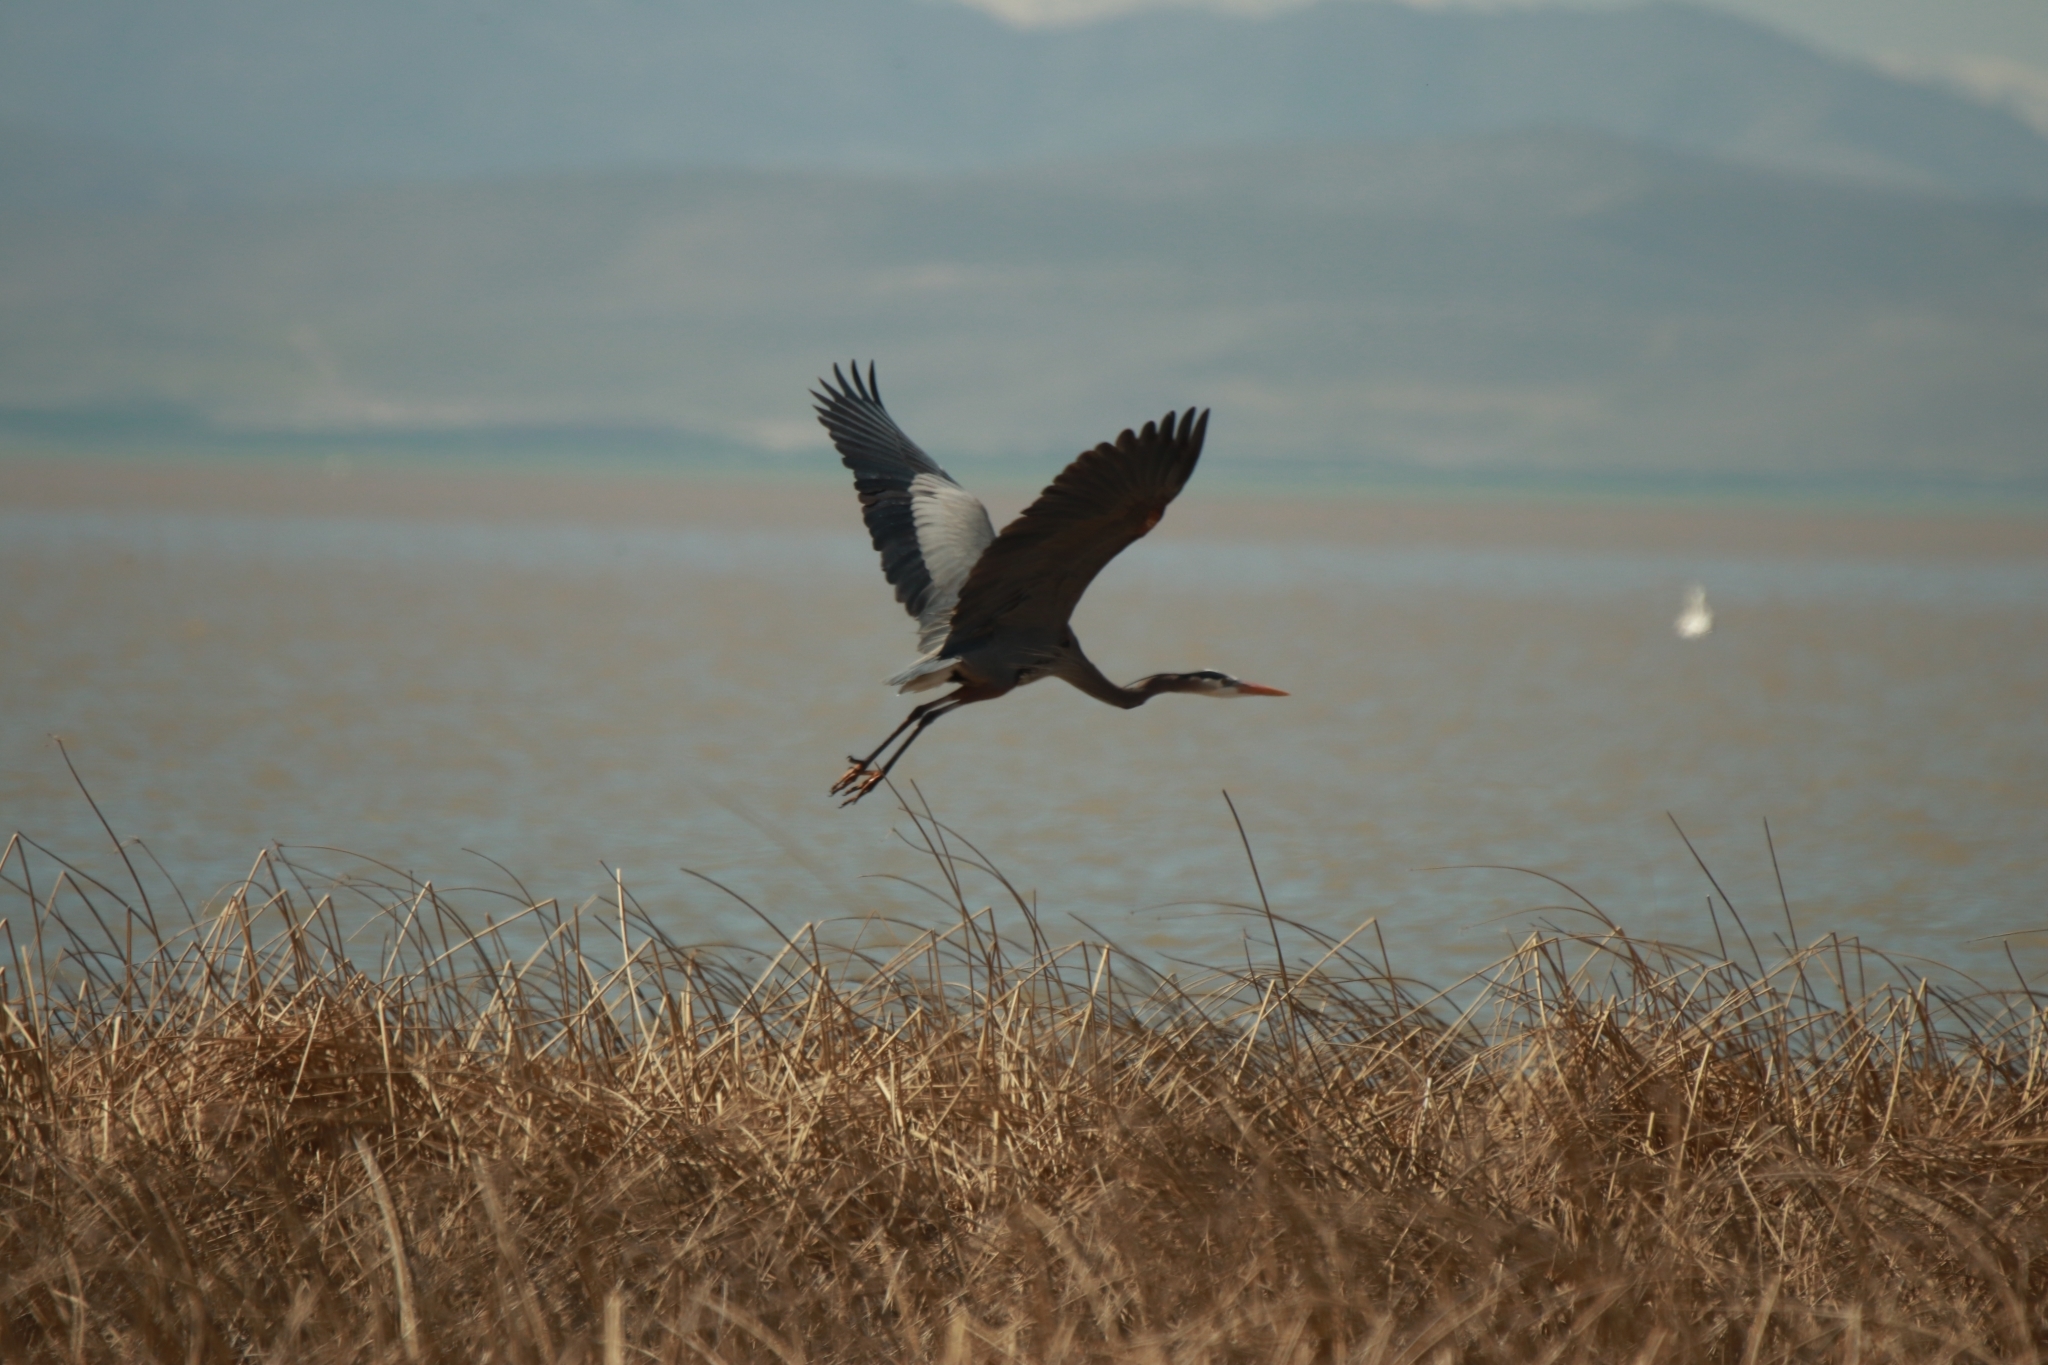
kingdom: Animalia
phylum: Chordata
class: Aves
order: Pelecaniformes
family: Ardeidae
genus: Ardea
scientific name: Ardea herodias
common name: Great blue heron
